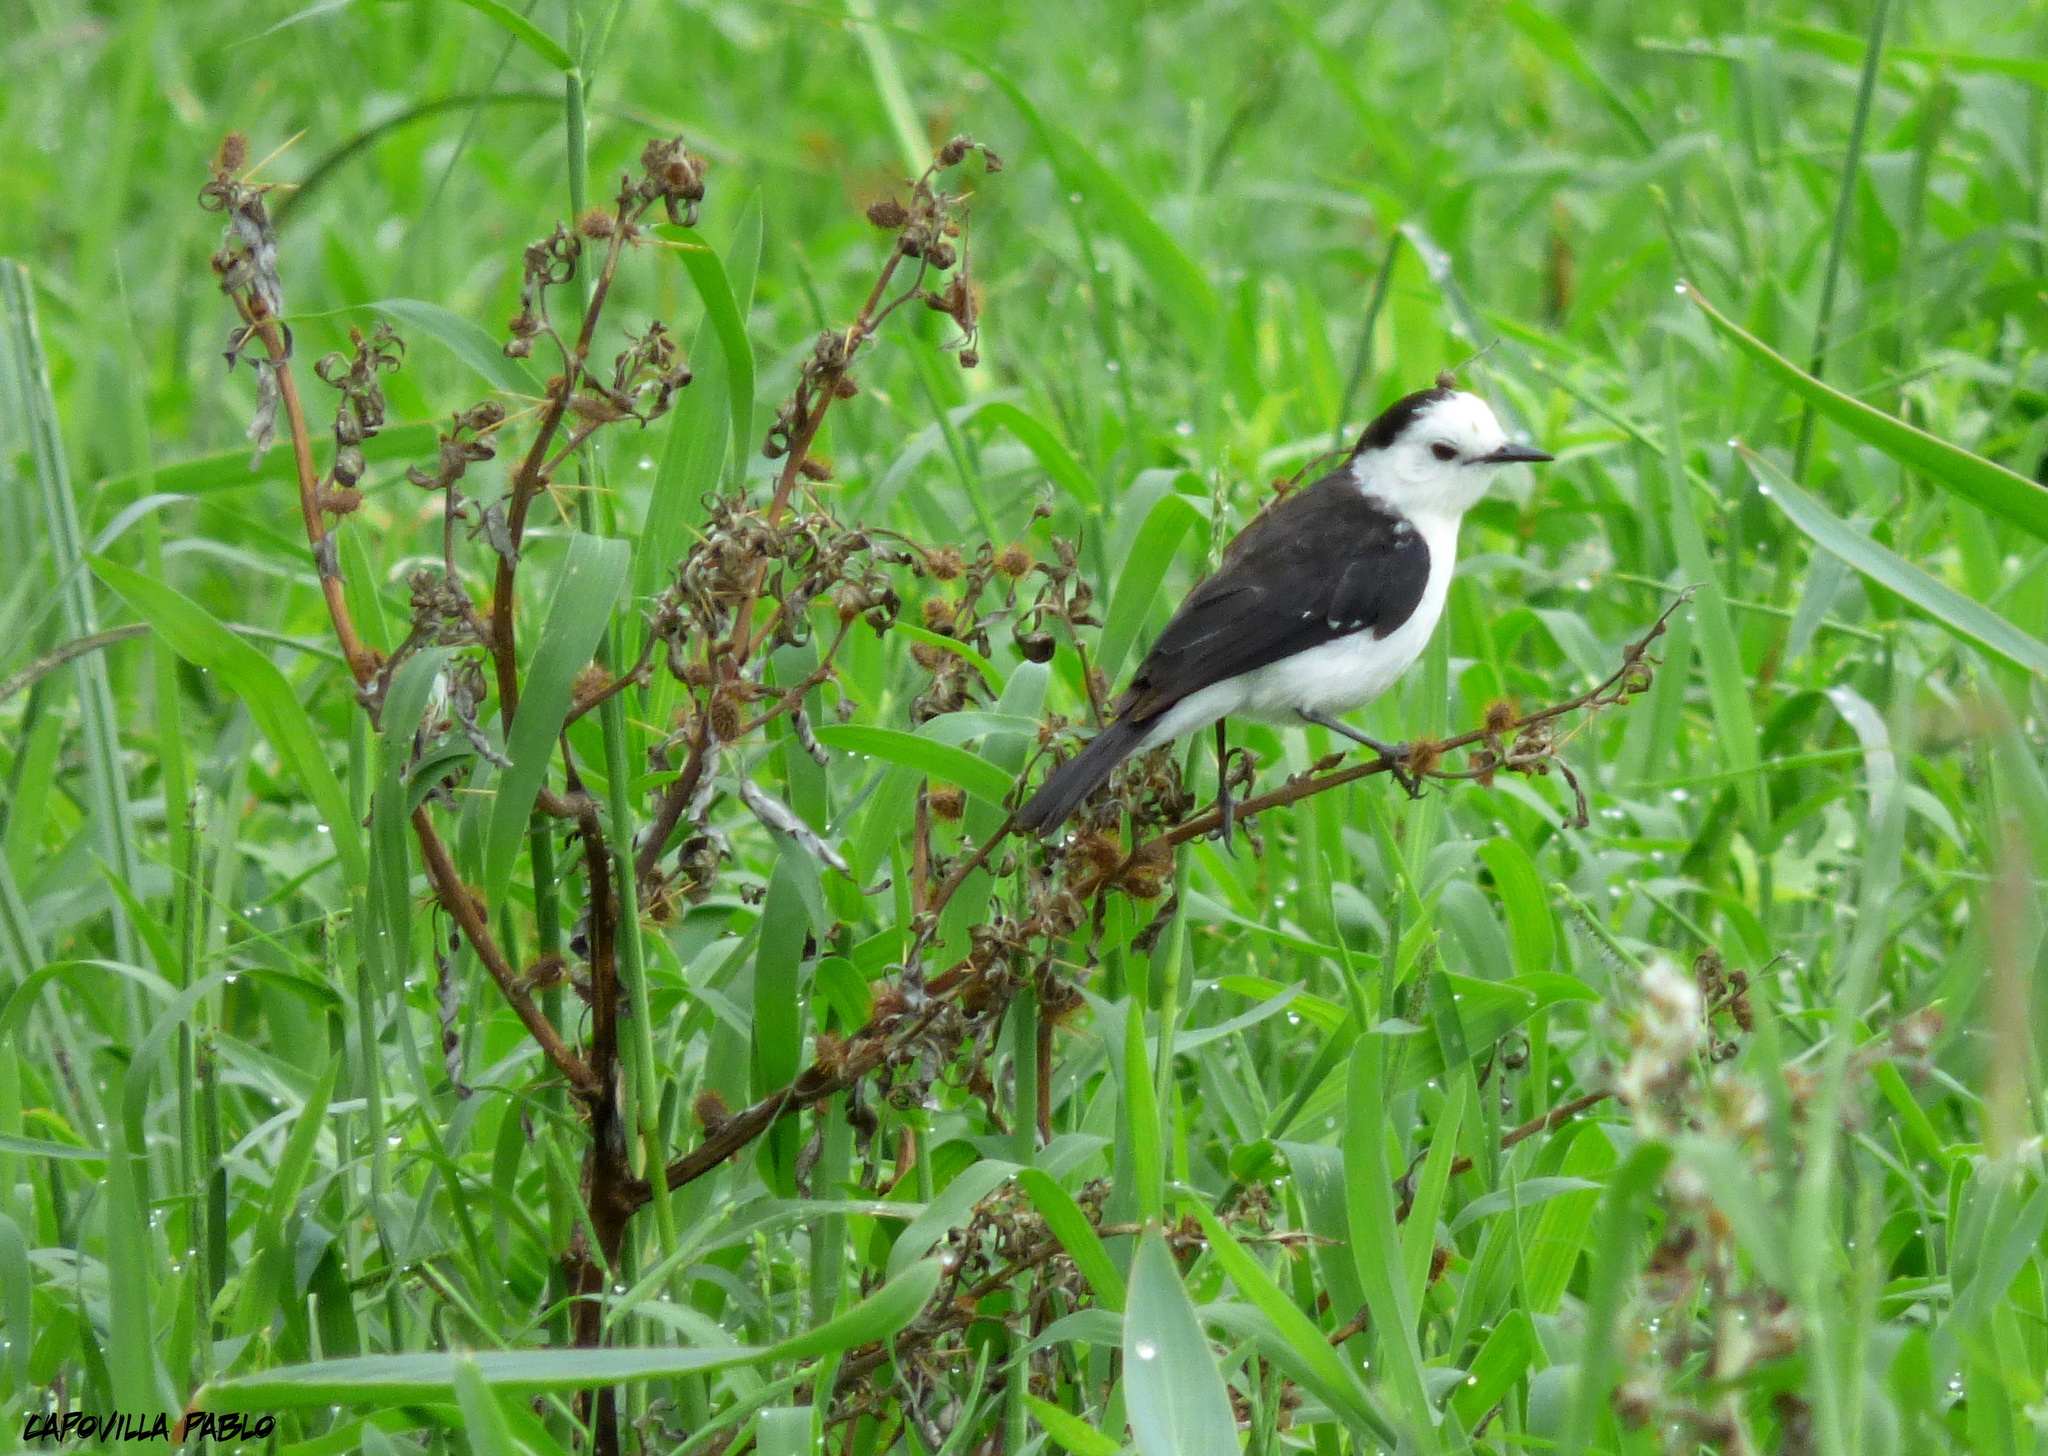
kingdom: Animalia
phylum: Chordata
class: Aves
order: Passeriformes
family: Tyrannidae
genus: Fluvicola
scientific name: Fluvicola pica
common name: Pied water-tyrant
